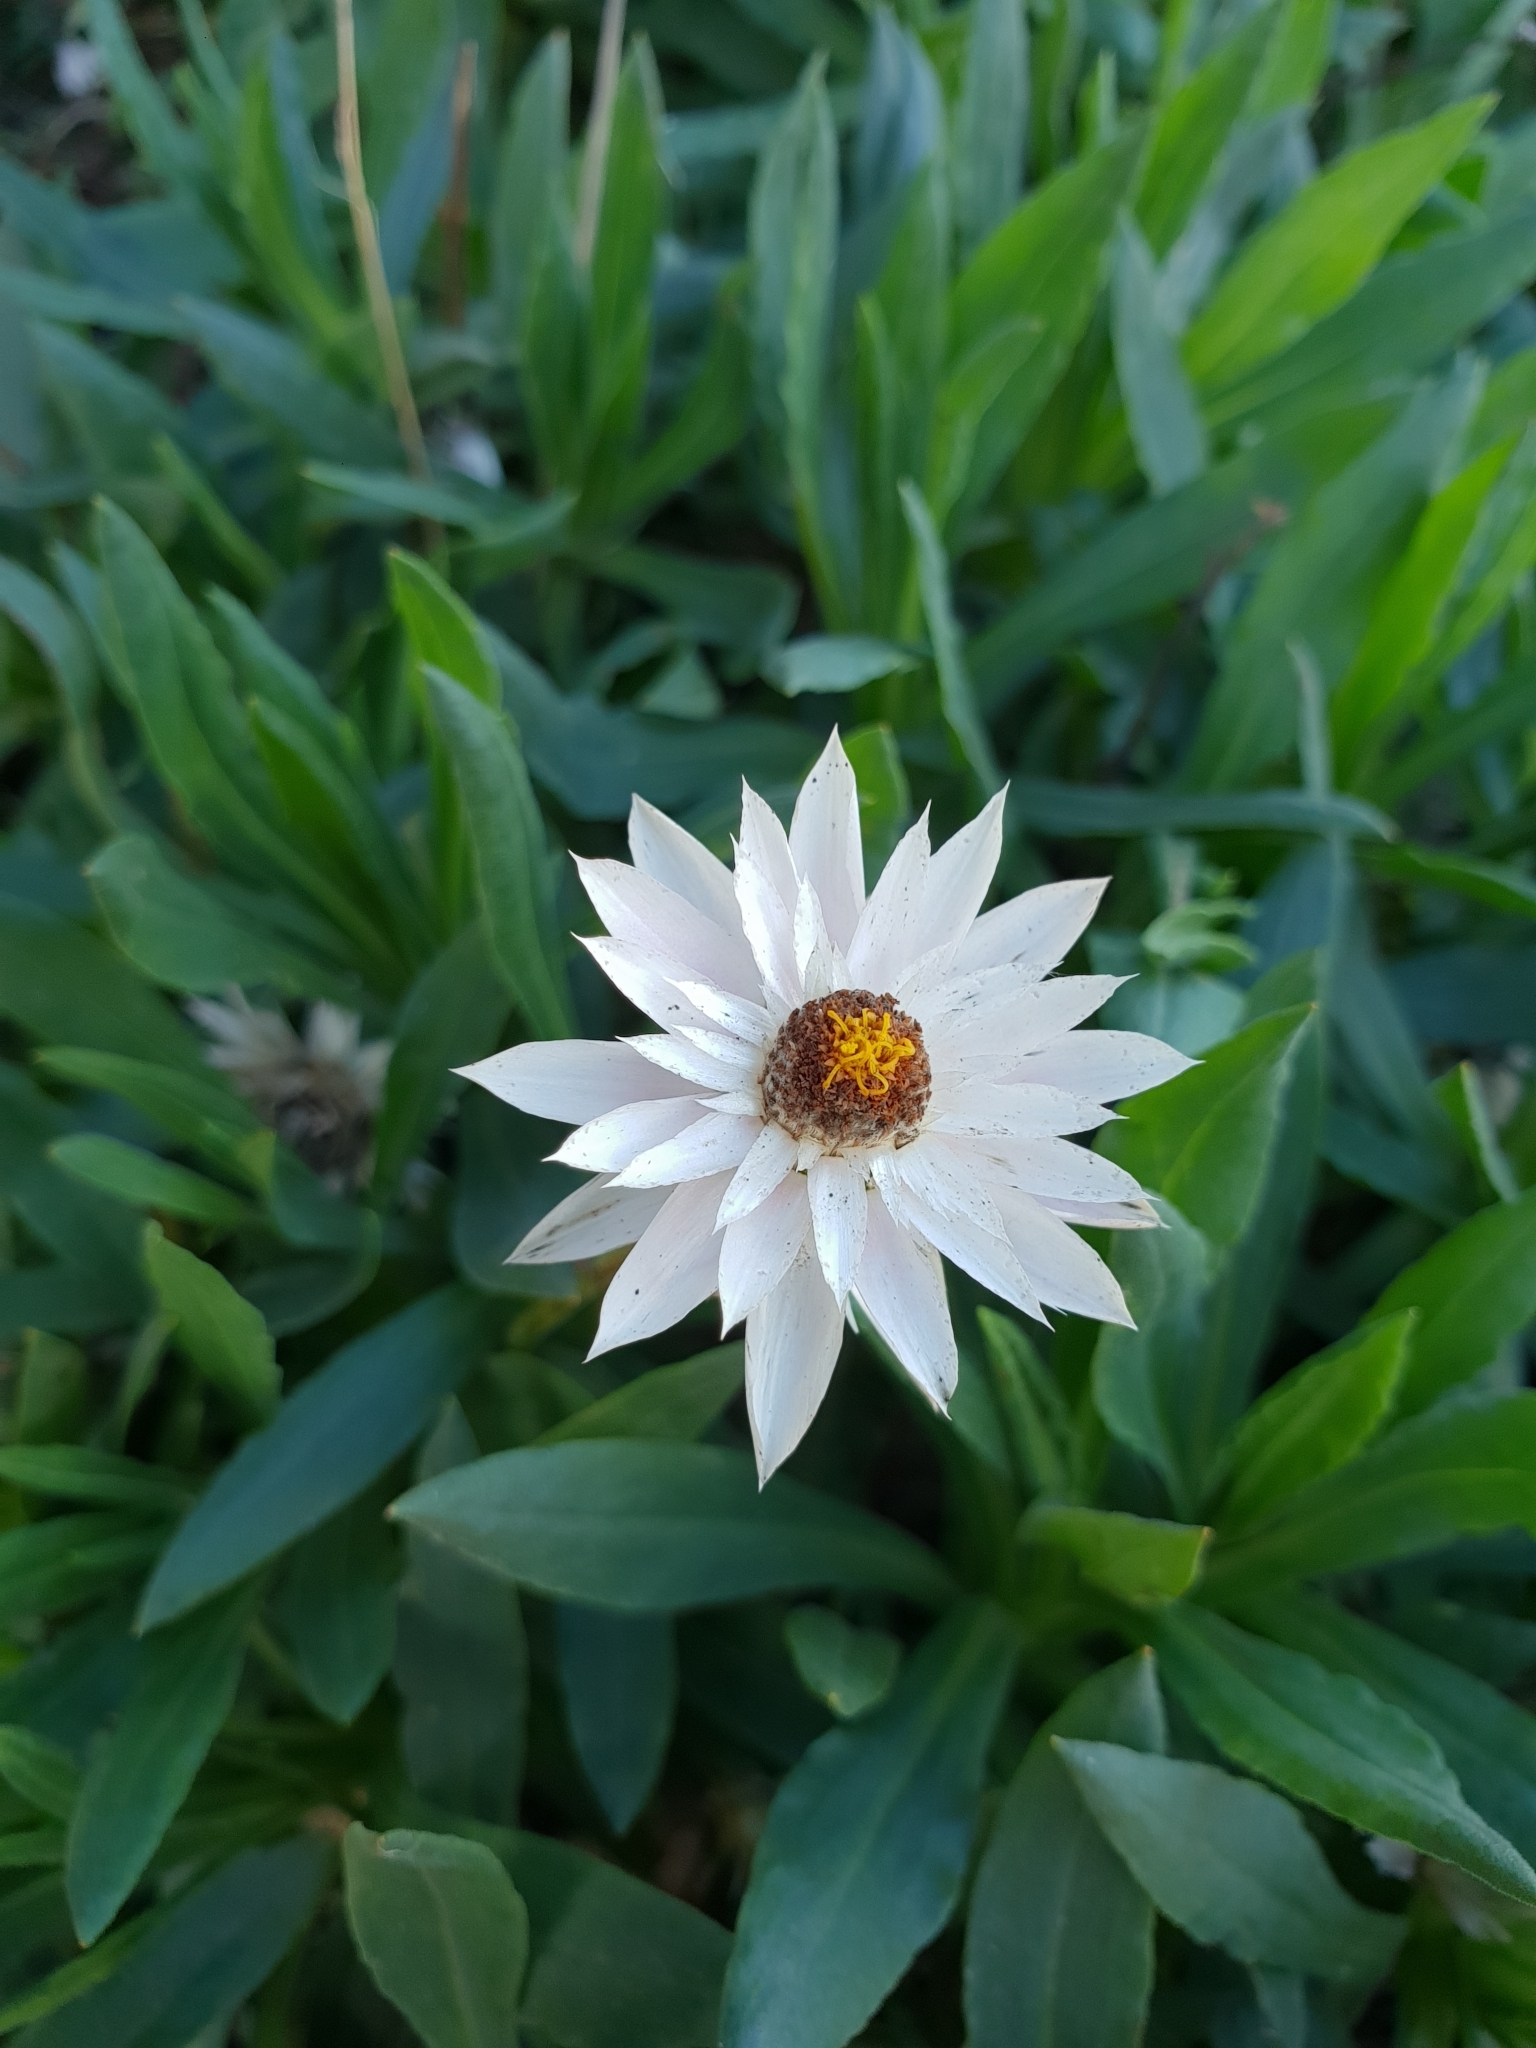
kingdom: Plantae
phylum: Tracheophyta
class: Magnoliopsida
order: Asterales
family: Asteraceae
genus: Xerochrysum
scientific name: Xerochrysum wilsonii
